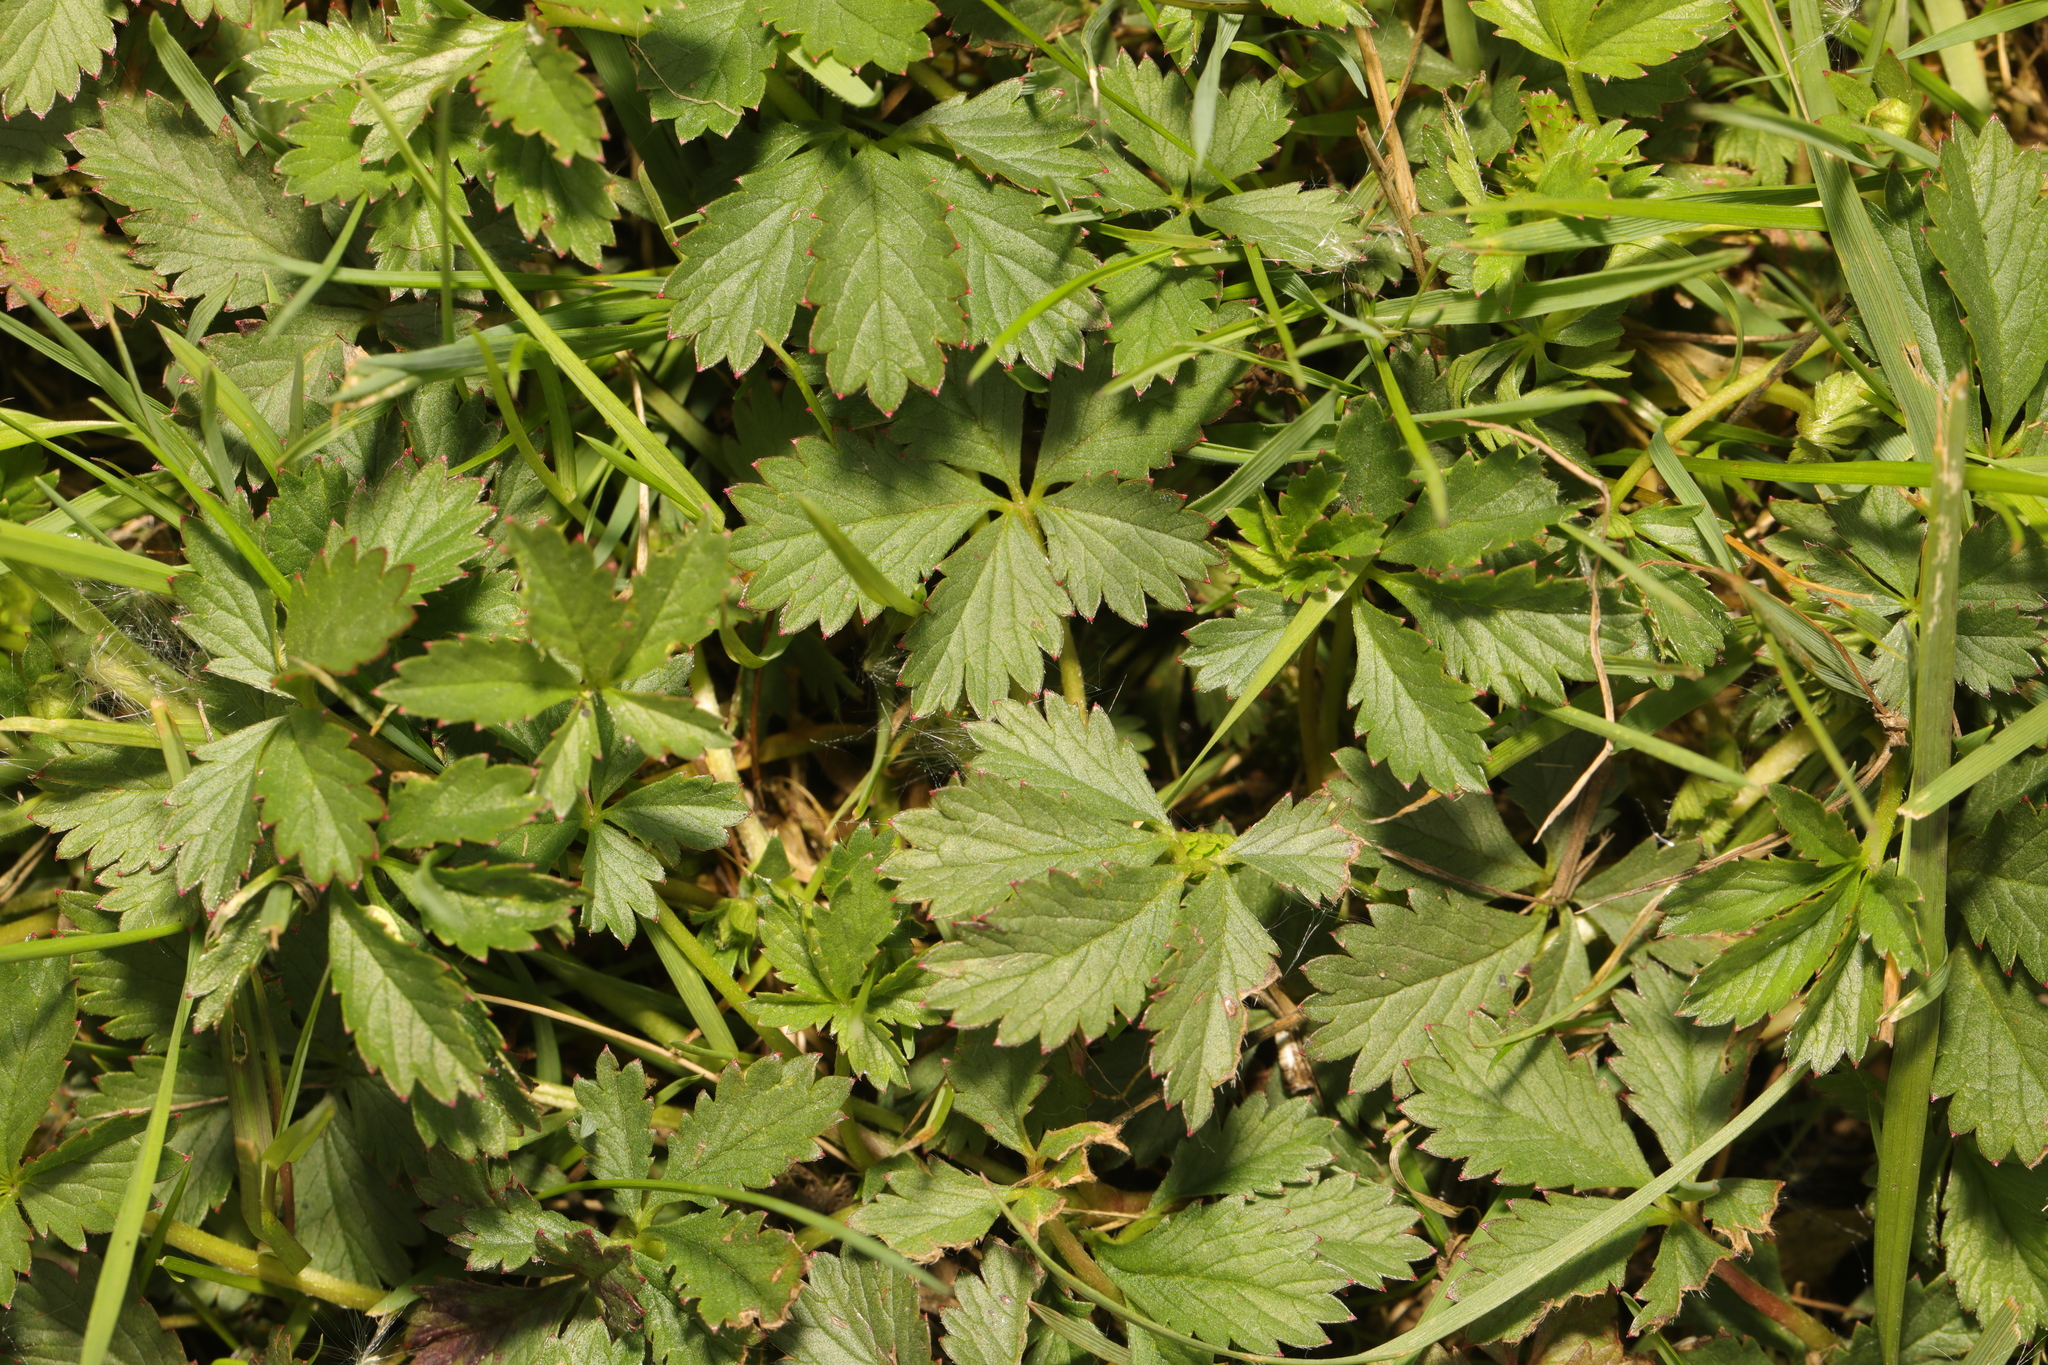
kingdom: Plantae
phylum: Tracheophyta
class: Magnoliopsida
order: Rosales
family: Rosaceae
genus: Potentilla
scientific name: Potentilla reptans
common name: Creeping cinquefoil
